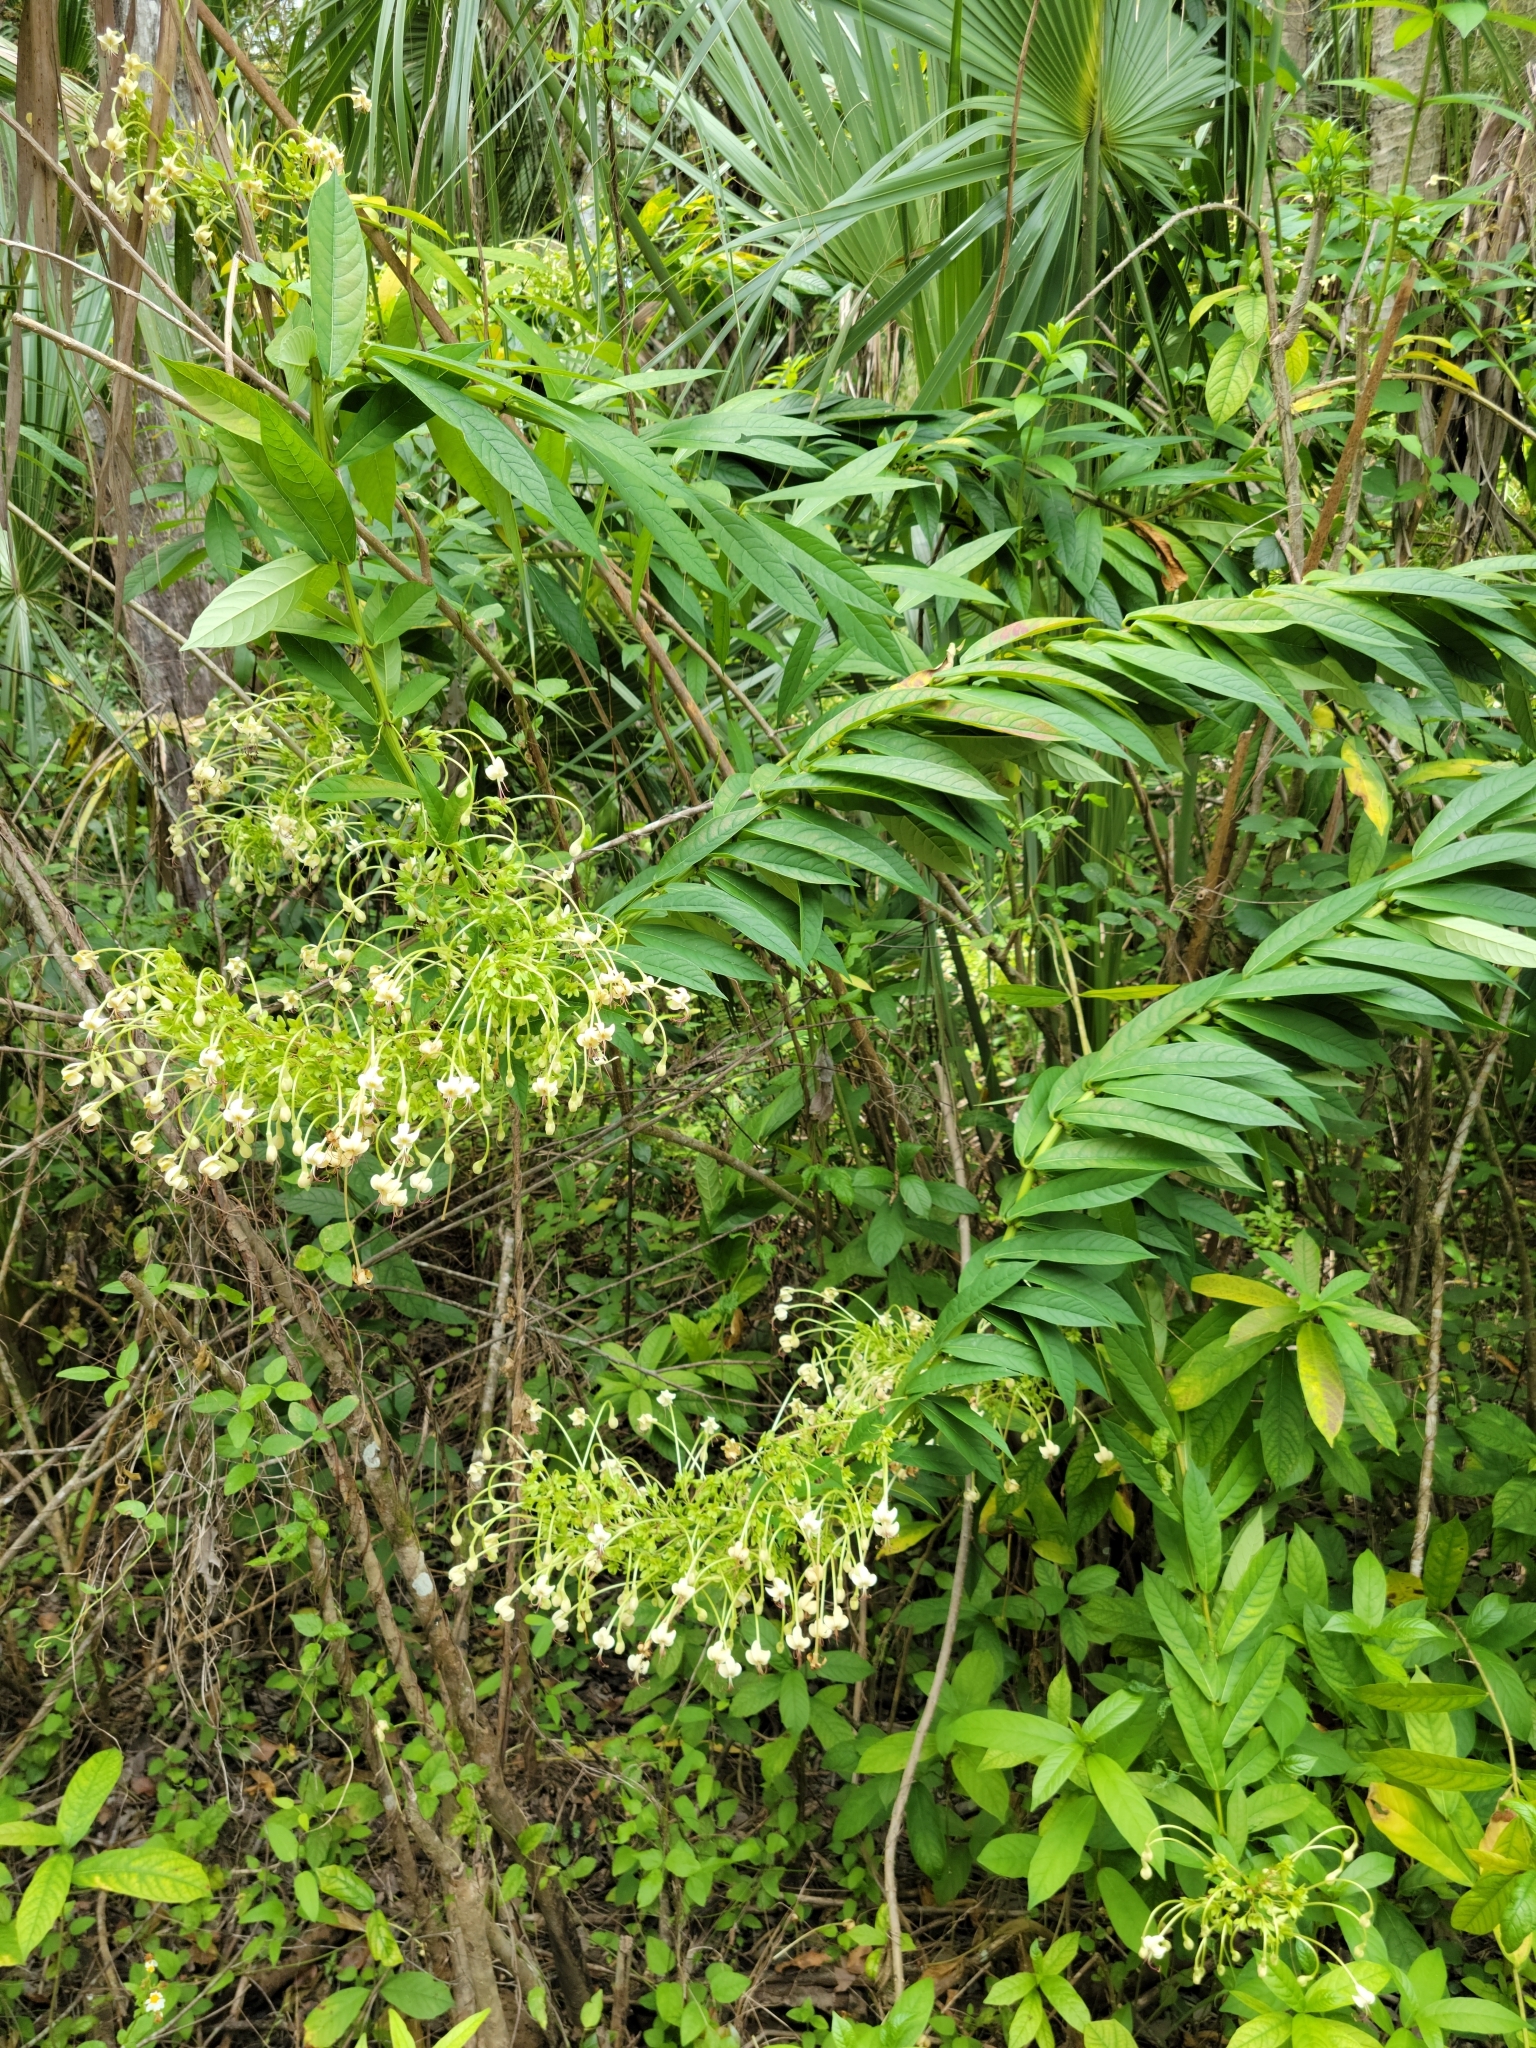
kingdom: Plantae
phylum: Tracheophyta
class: Magnoliopsida
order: Lamiales
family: Lamiaceae
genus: Clerodendrum
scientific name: Clerodendrum indicum
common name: Turk's turbin
